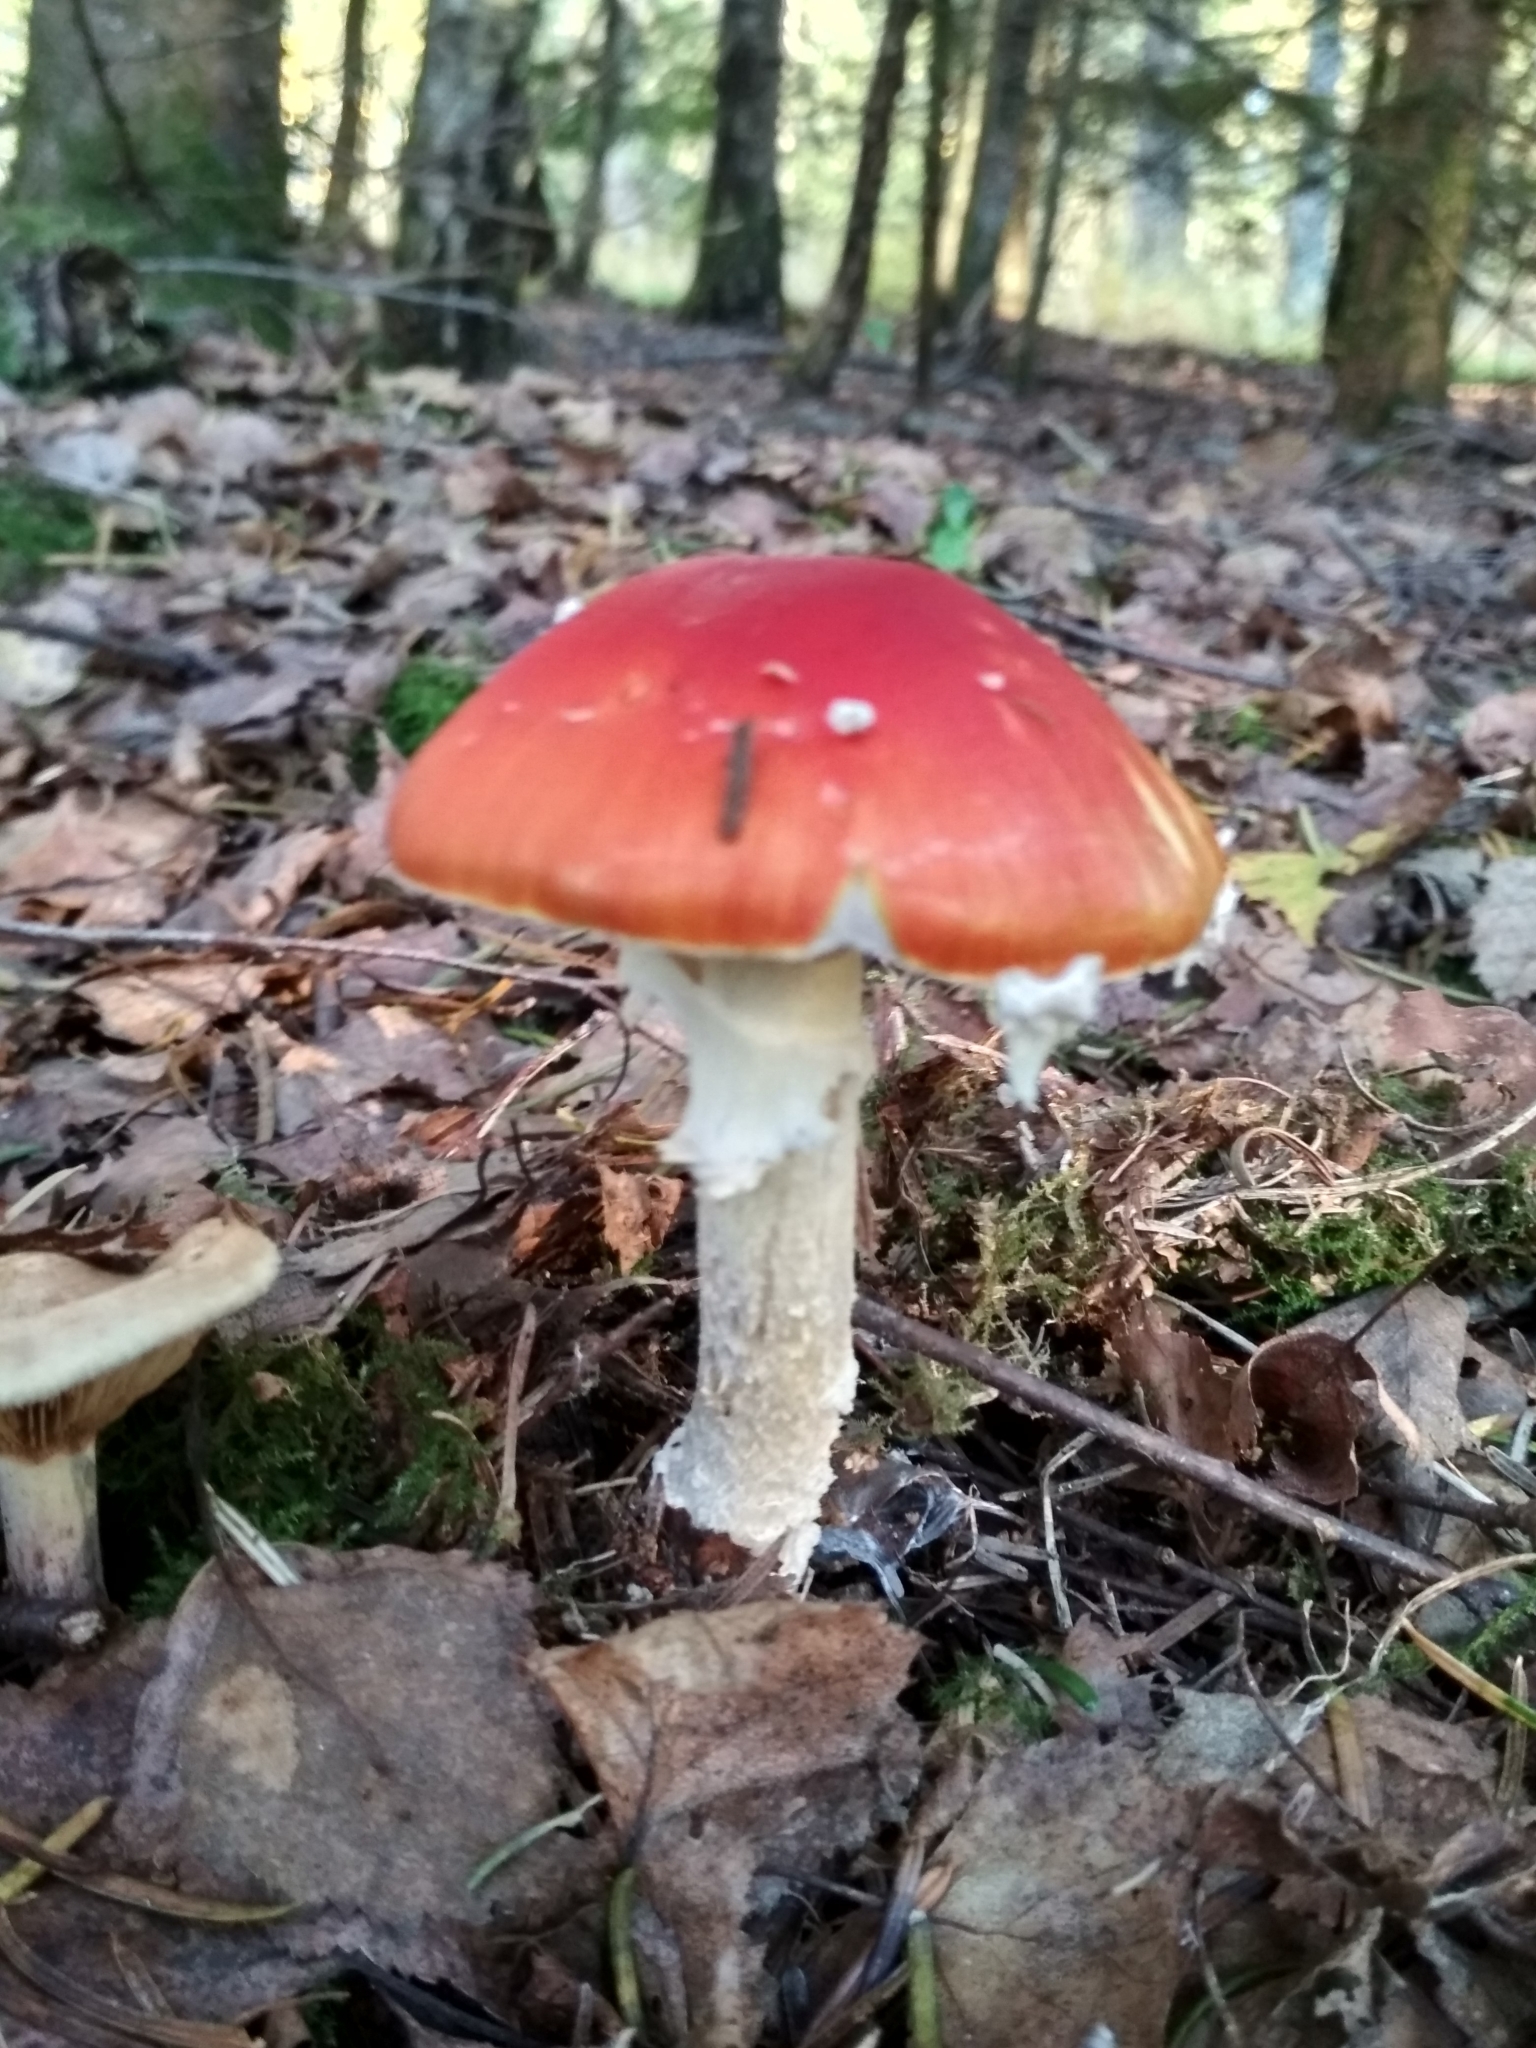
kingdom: Fungi
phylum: Basidiomycota
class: Agaricomycetes
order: Agaricales
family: Amanitaceae
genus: Amanita
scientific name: Amanita muscaria
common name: Fly agaric
